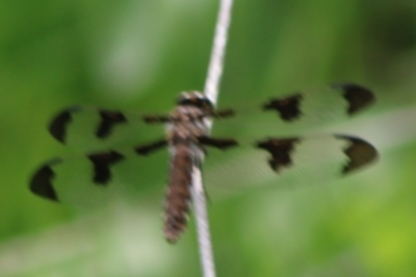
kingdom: Animalia
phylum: Arthropoda
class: Insecta
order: Odonata
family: Libellulidae
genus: Plathemis
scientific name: Plathemis lydia
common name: Common whitetail
